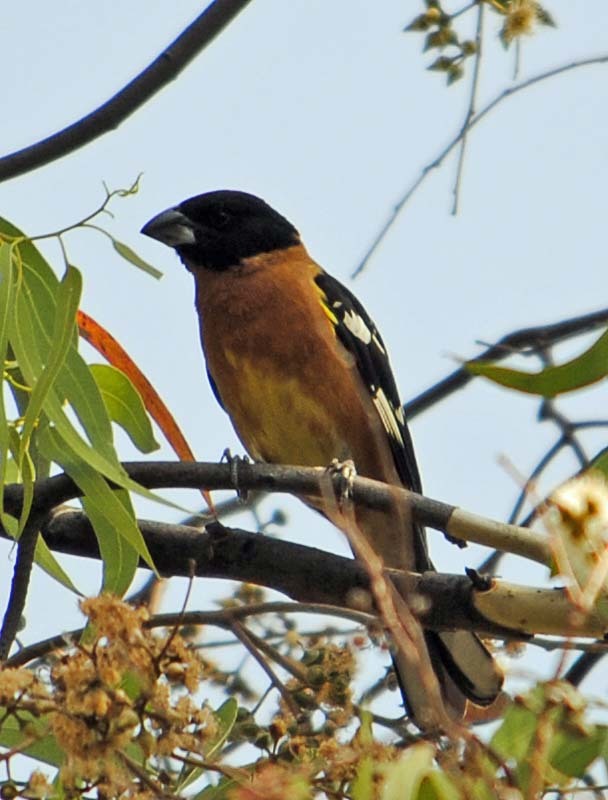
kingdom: Animalia
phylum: Chordata
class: Aves
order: Passeriformes
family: Cardinalidae
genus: Pheucticus
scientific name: Pheucticus melanocephalus
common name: Black-headed grosbeak
